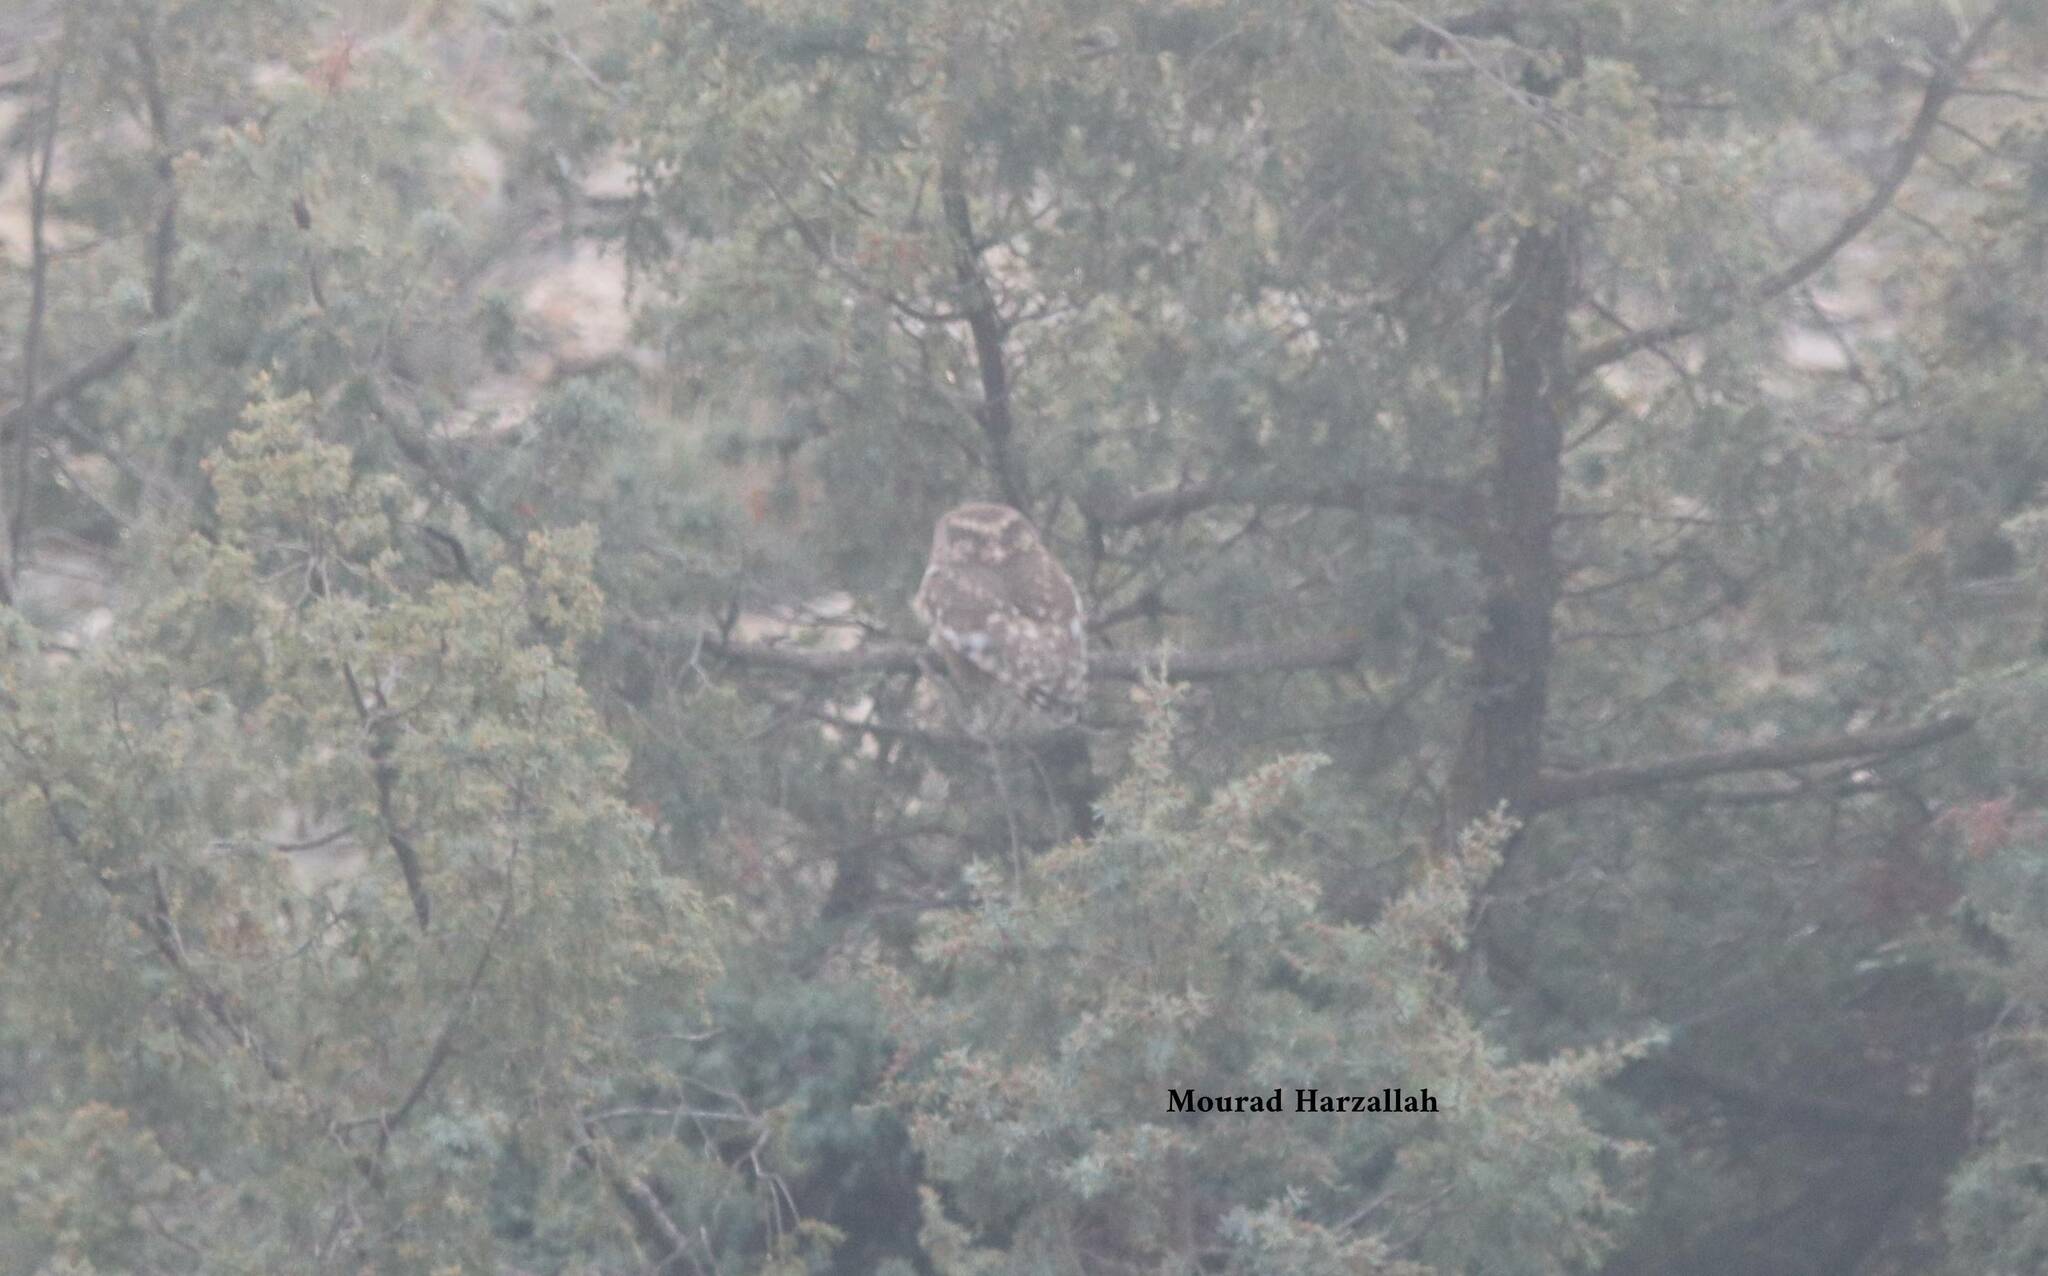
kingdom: Animalia
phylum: Chordata
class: Aves
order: Strigiformes
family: Strigidae
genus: Athene
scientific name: Athene noctua
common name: Little owl
